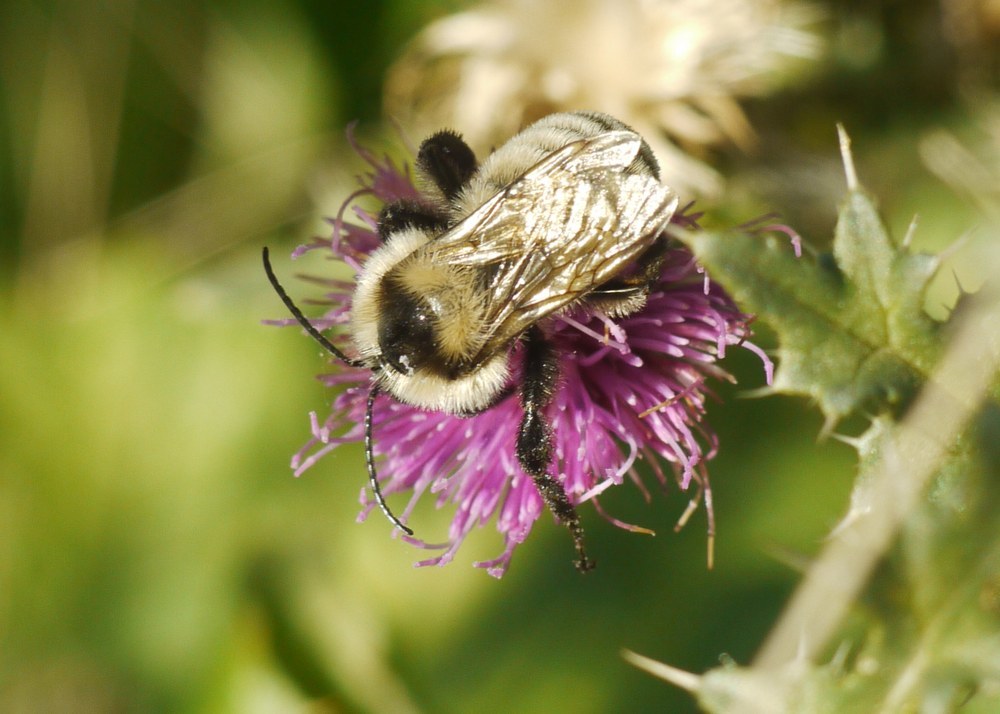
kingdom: Animalia
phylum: Arthropoda
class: Insecta
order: Hymenoptera
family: Apidae
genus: Bombus
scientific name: Bombus zonatus
